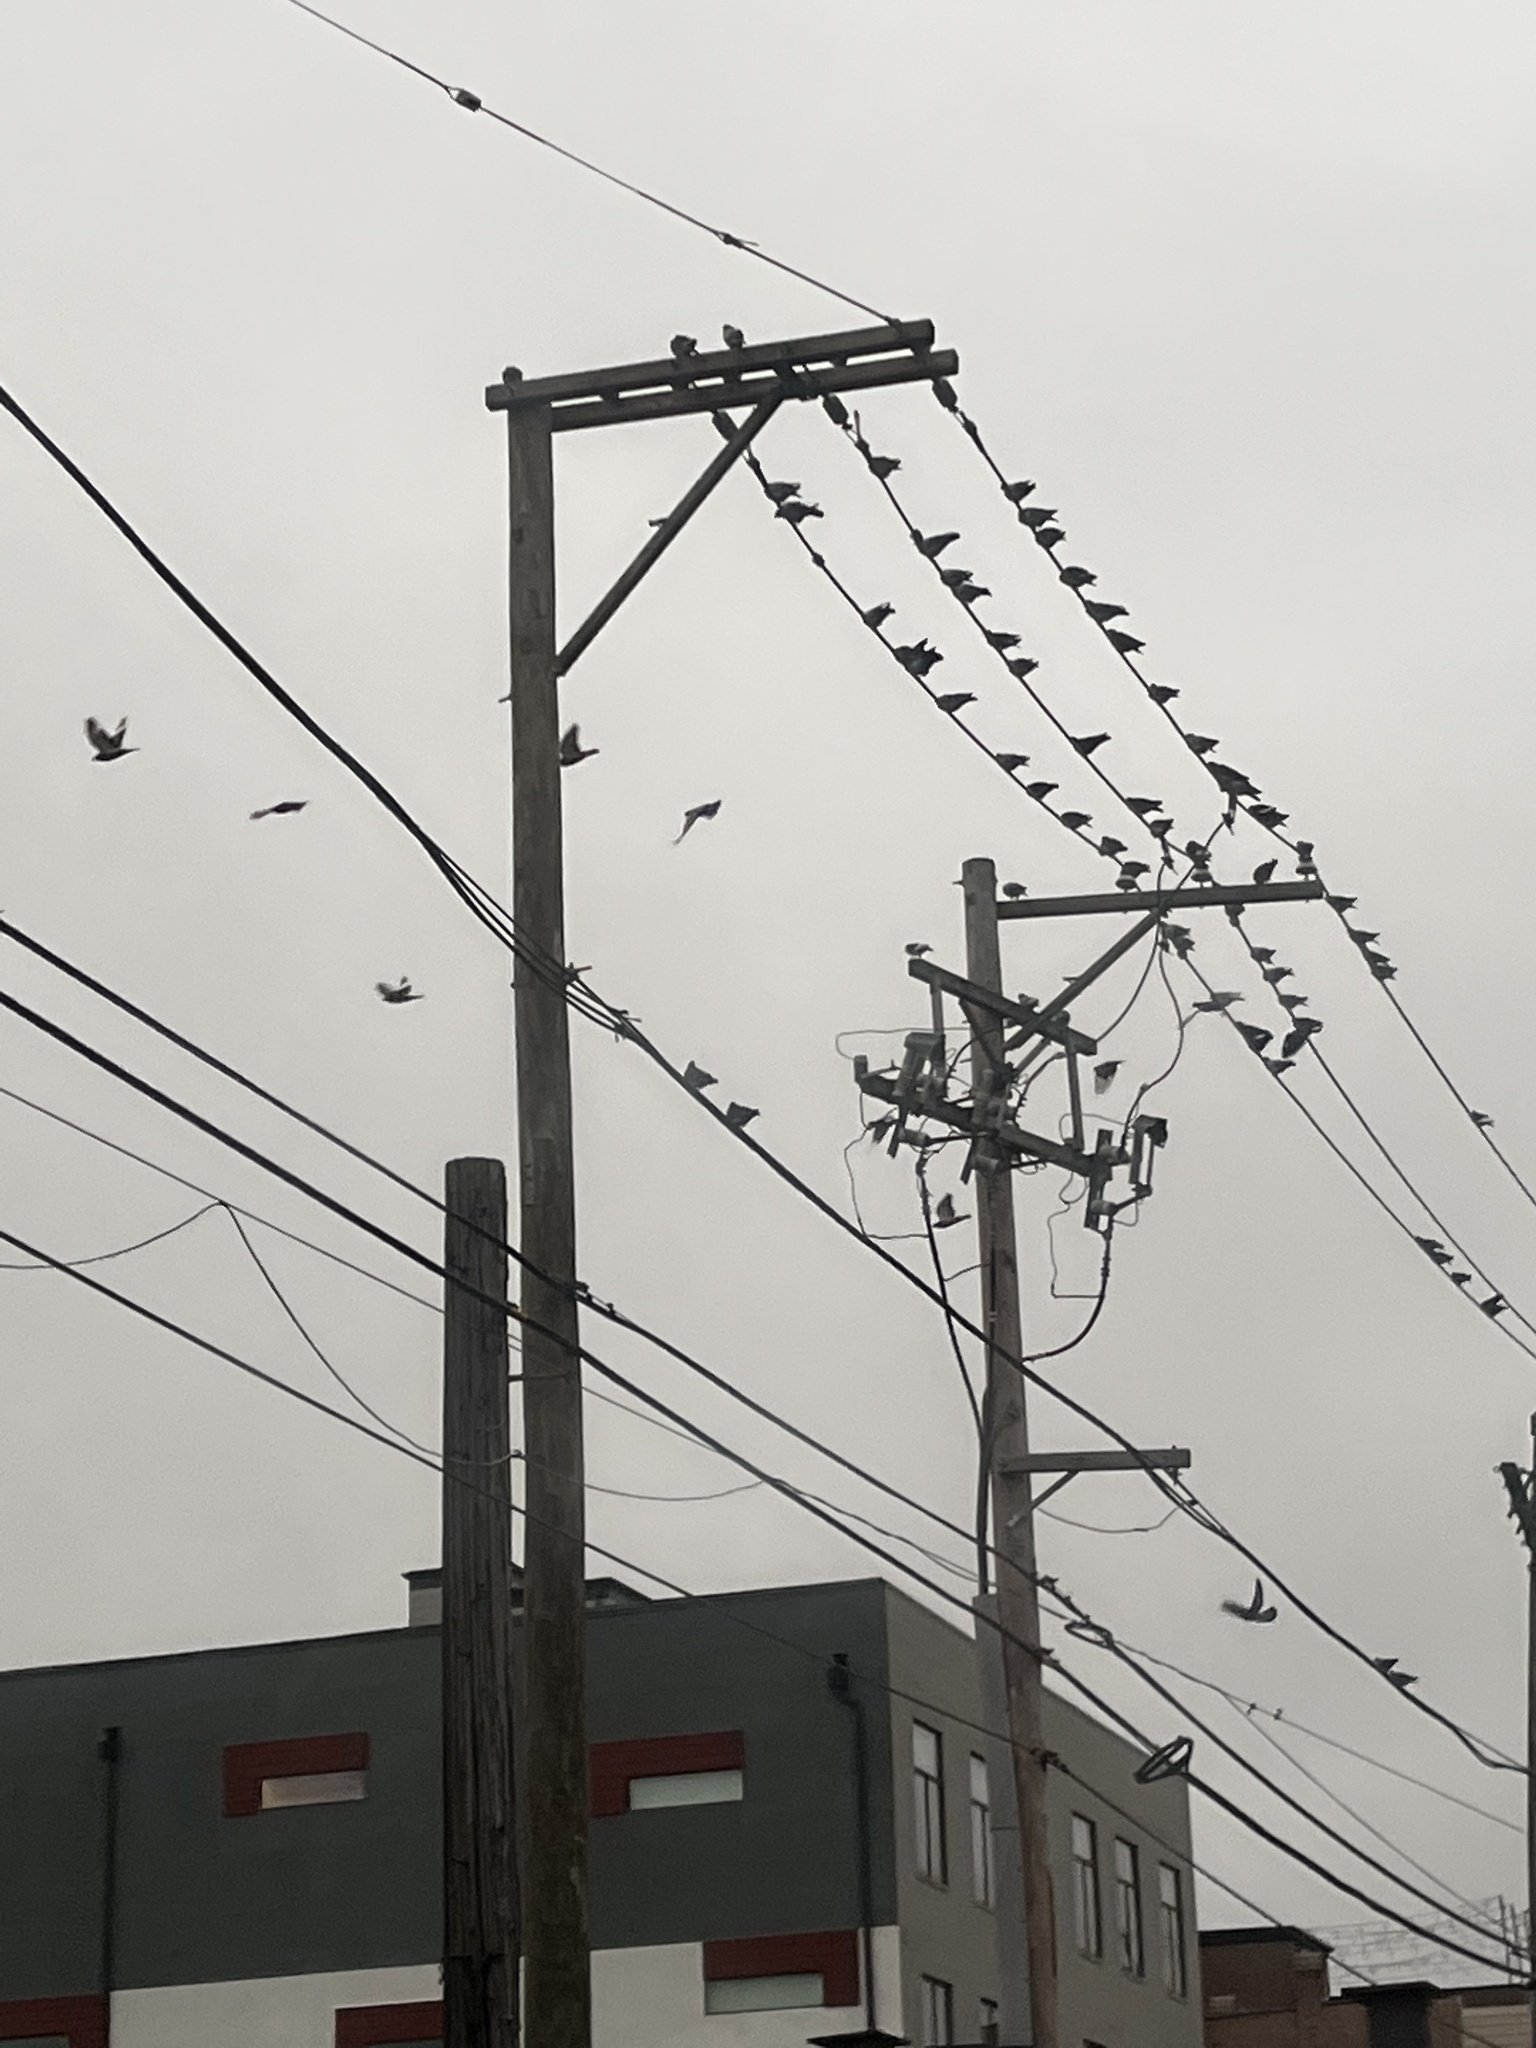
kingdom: Animalia
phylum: Chordata
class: Aves
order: Columbiformes
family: Columbidae
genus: Columba
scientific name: Columba livia
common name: Rock pigeon
